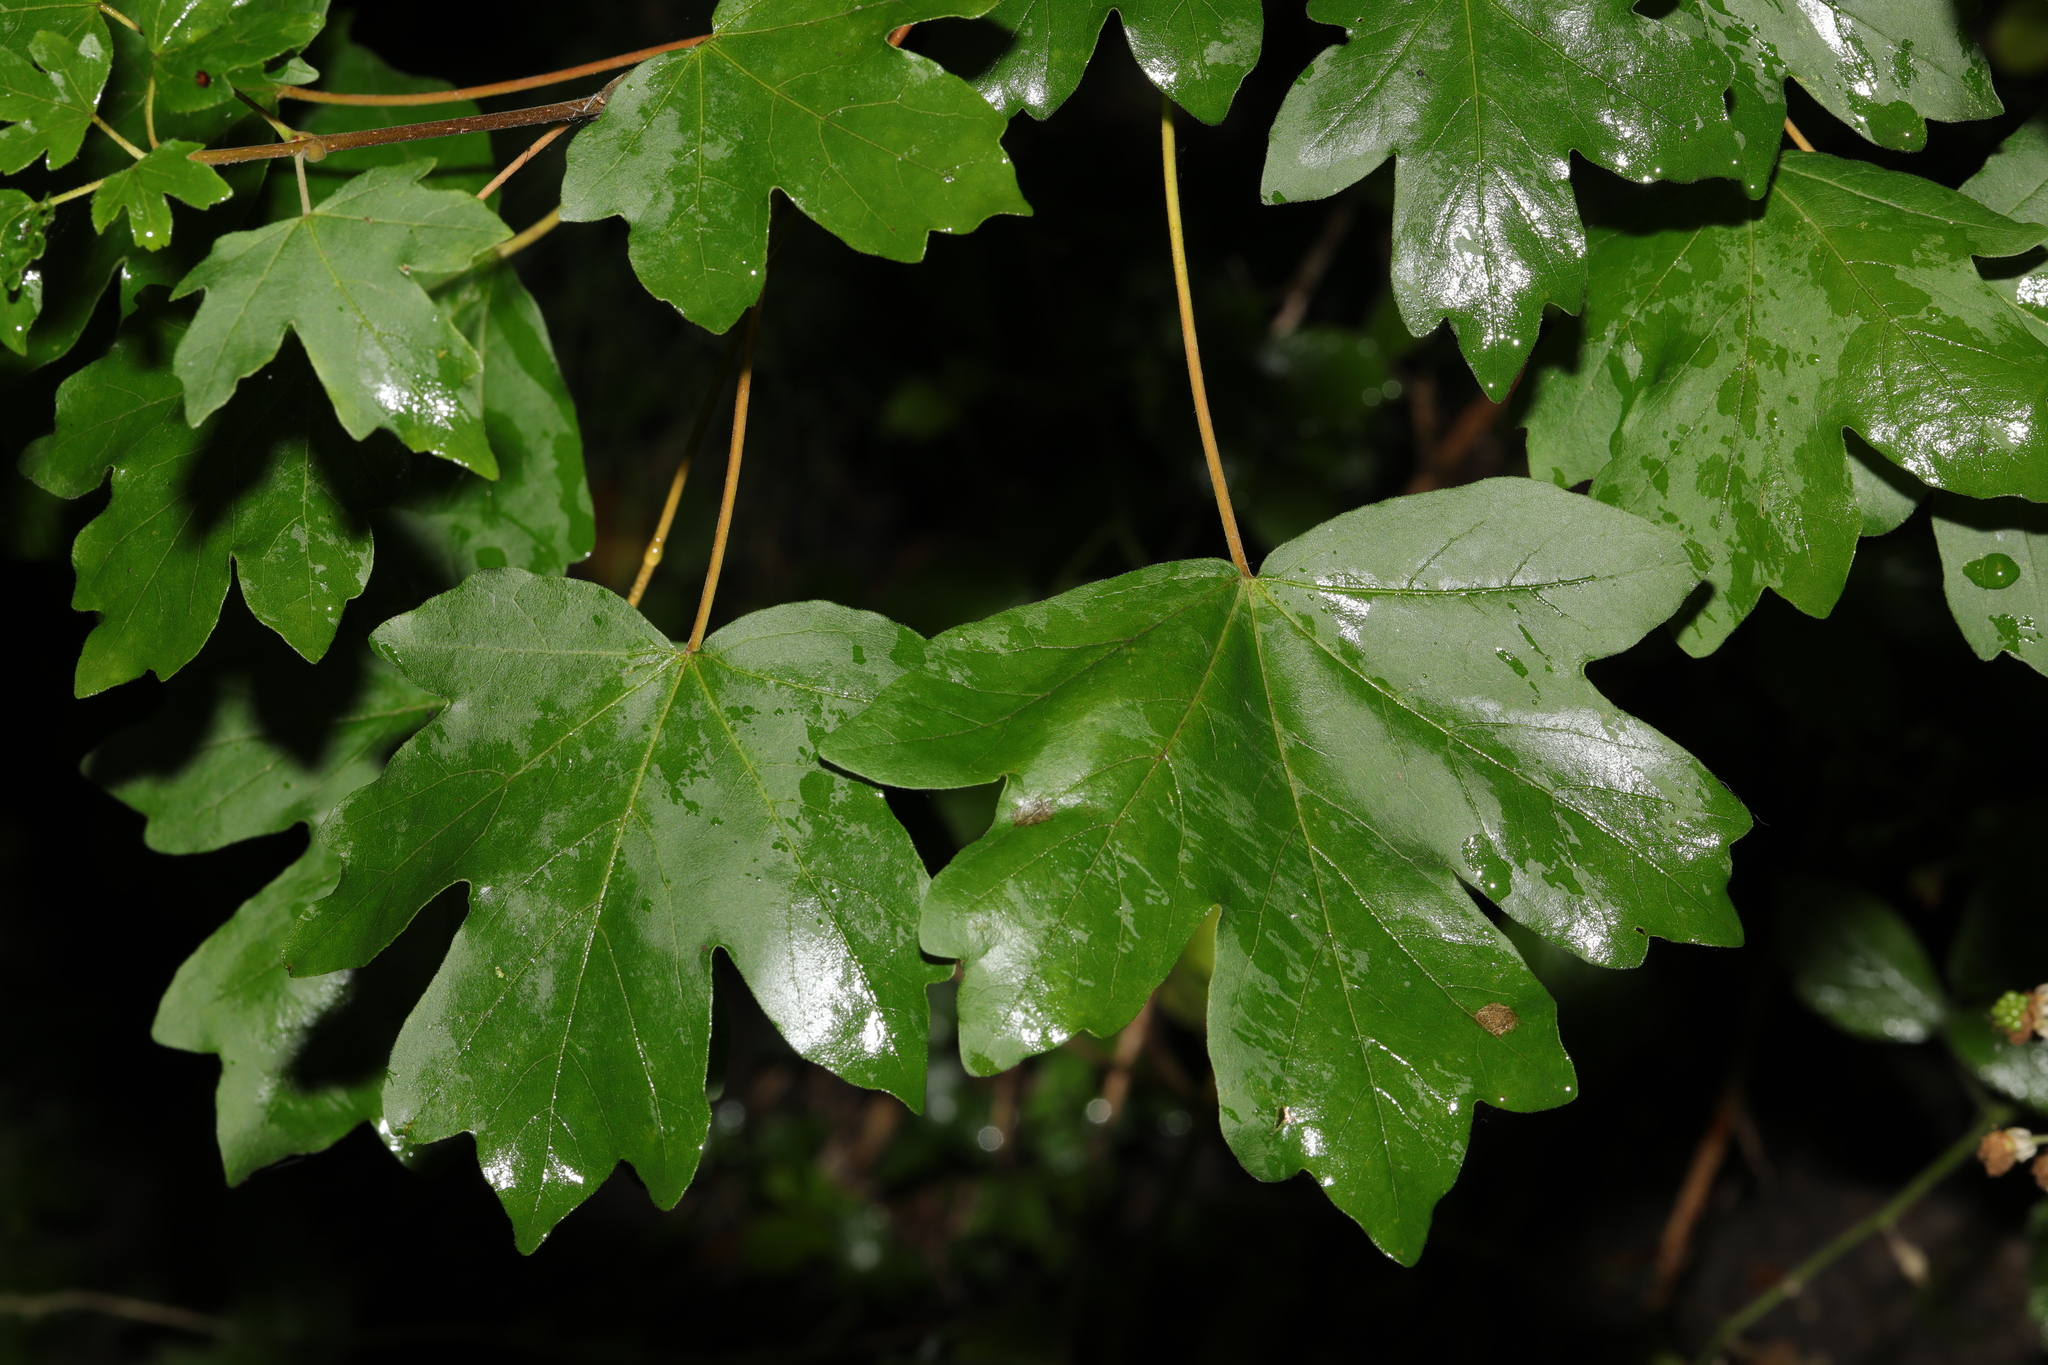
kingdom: Plantae
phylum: Tracheophyta
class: Magnoliopsida
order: Sapindales
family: Sapindaceae
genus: Acer
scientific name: Acer campestre
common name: Field maple
